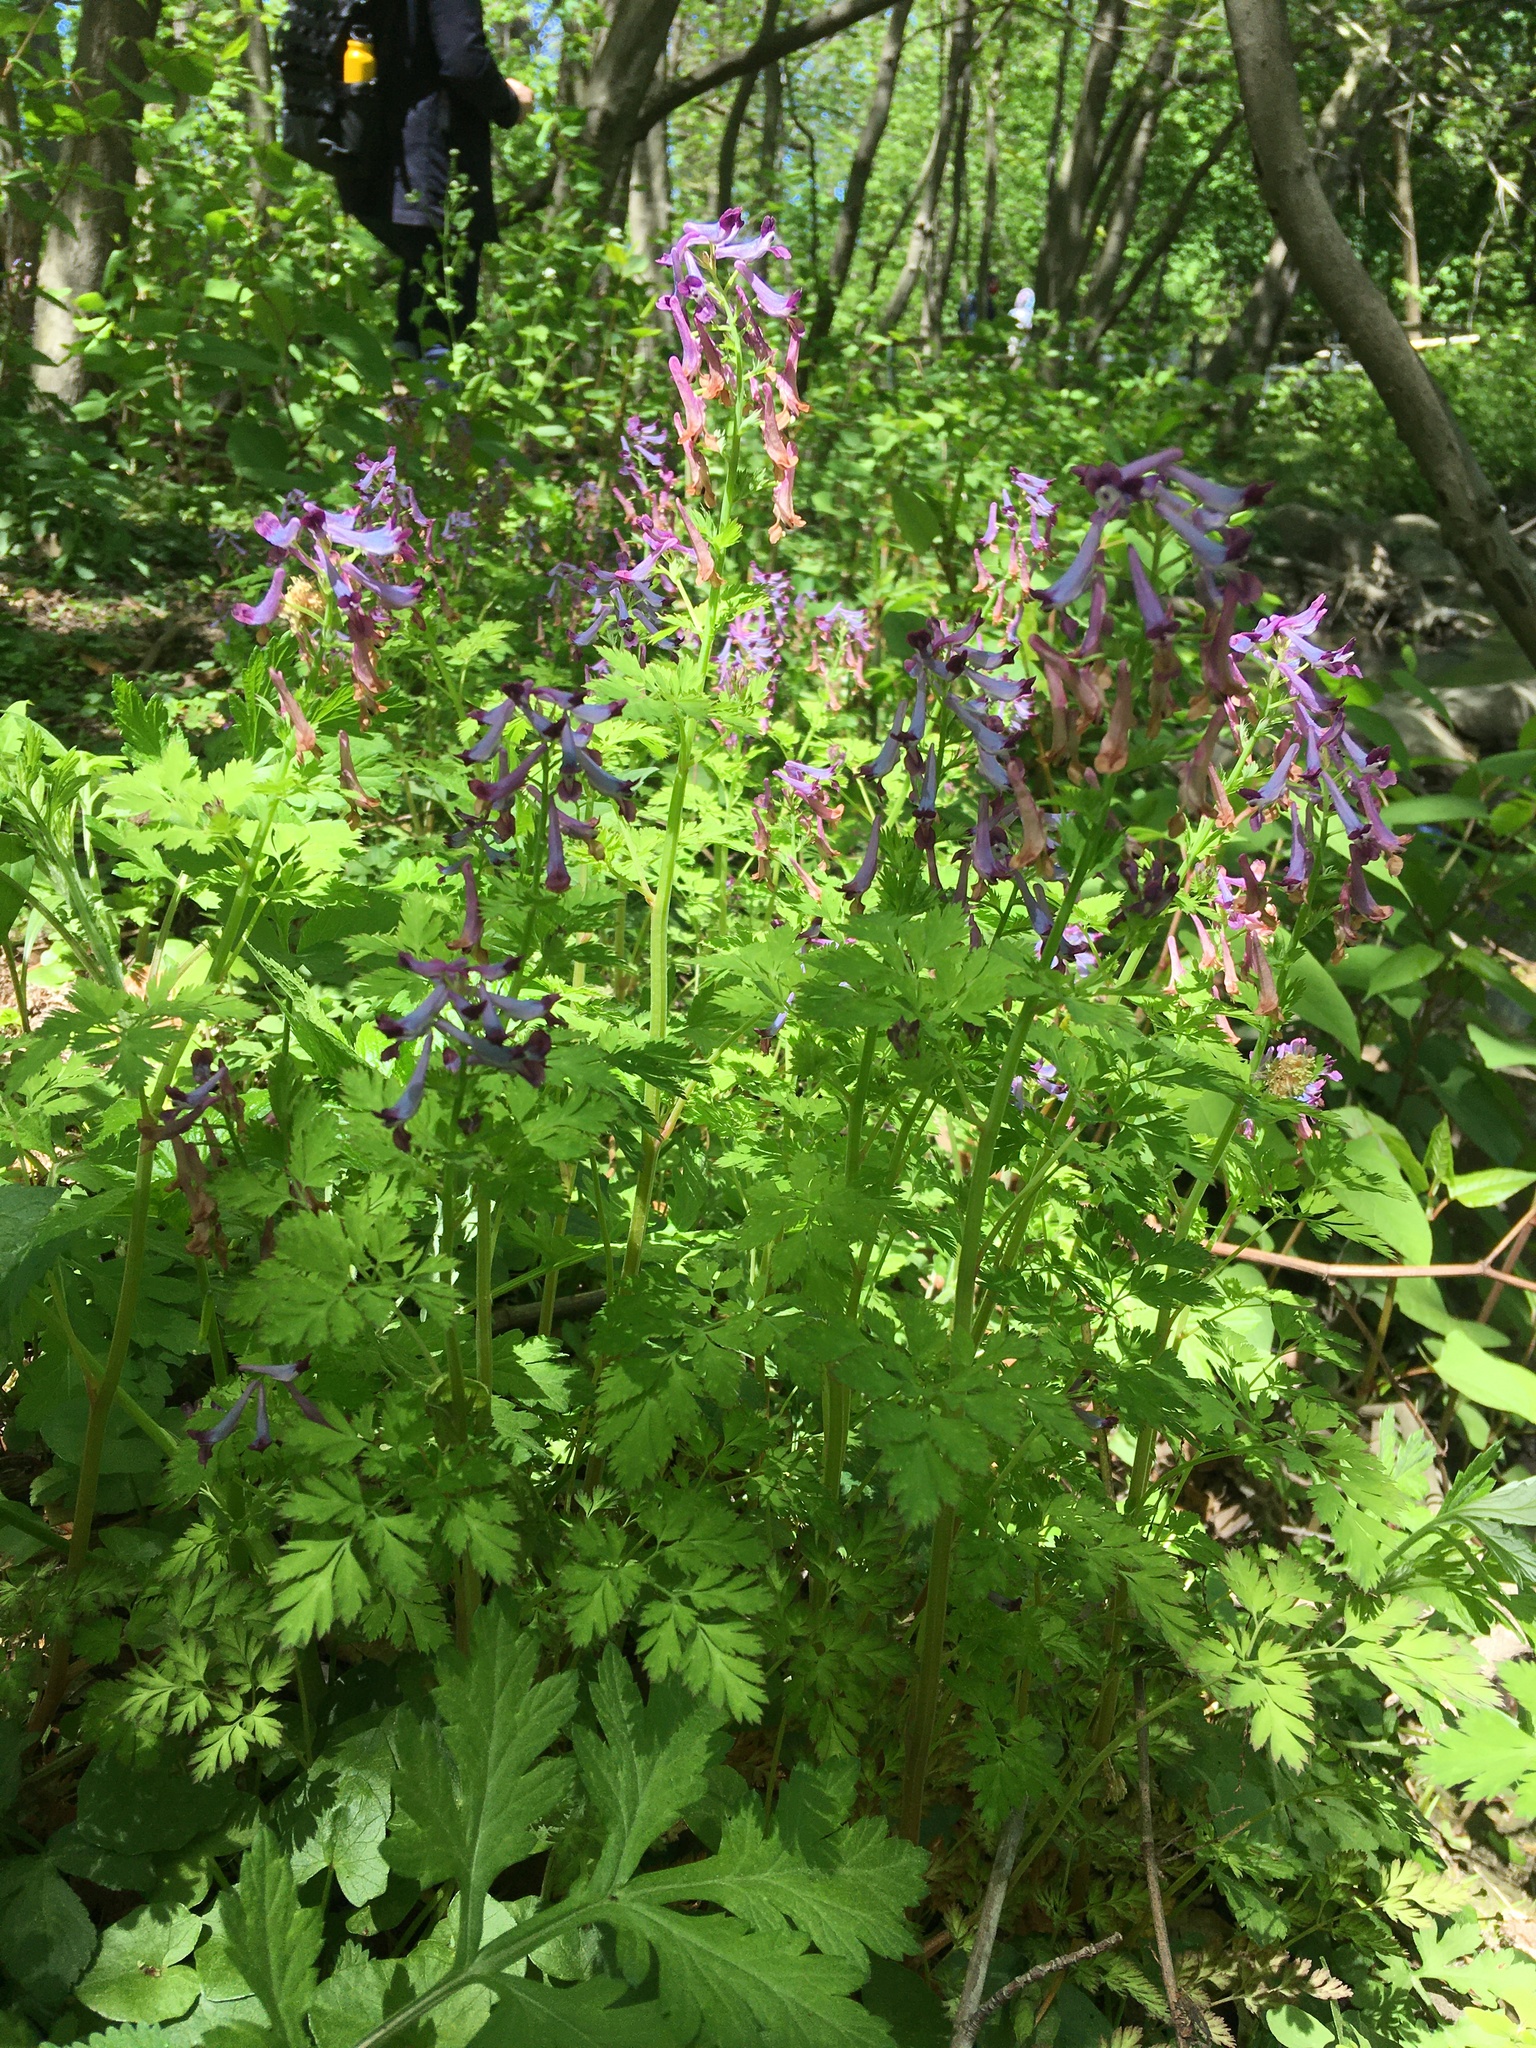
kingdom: Plantae
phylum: Tracheophyta
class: Magnoliopsida
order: Ranunculales
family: Papaveraceae
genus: Corydalis
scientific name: Corydalis incisa
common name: Incised fumewort
